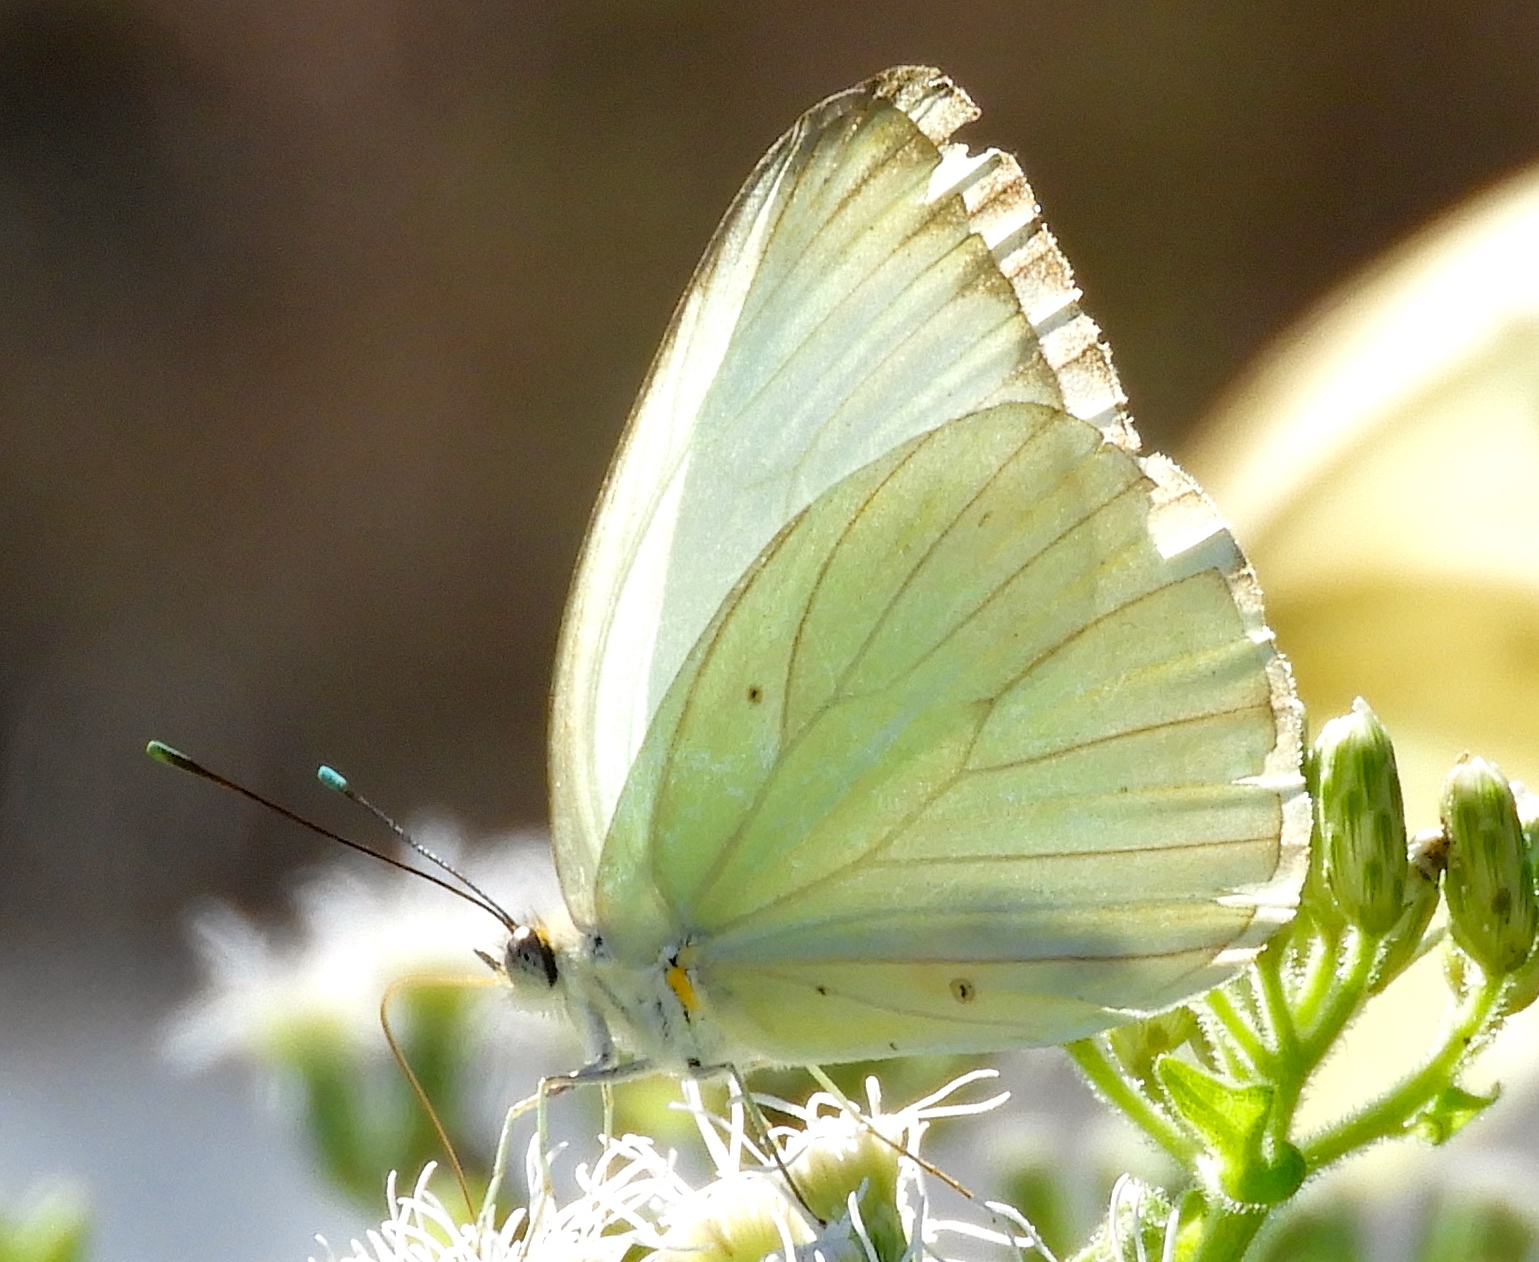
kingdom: Animalia
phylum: Arthropoda
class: Insecta
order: Lepidoptera
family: Pieridae
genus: Ascia
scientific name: Ascia monuste
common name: Great southern white
